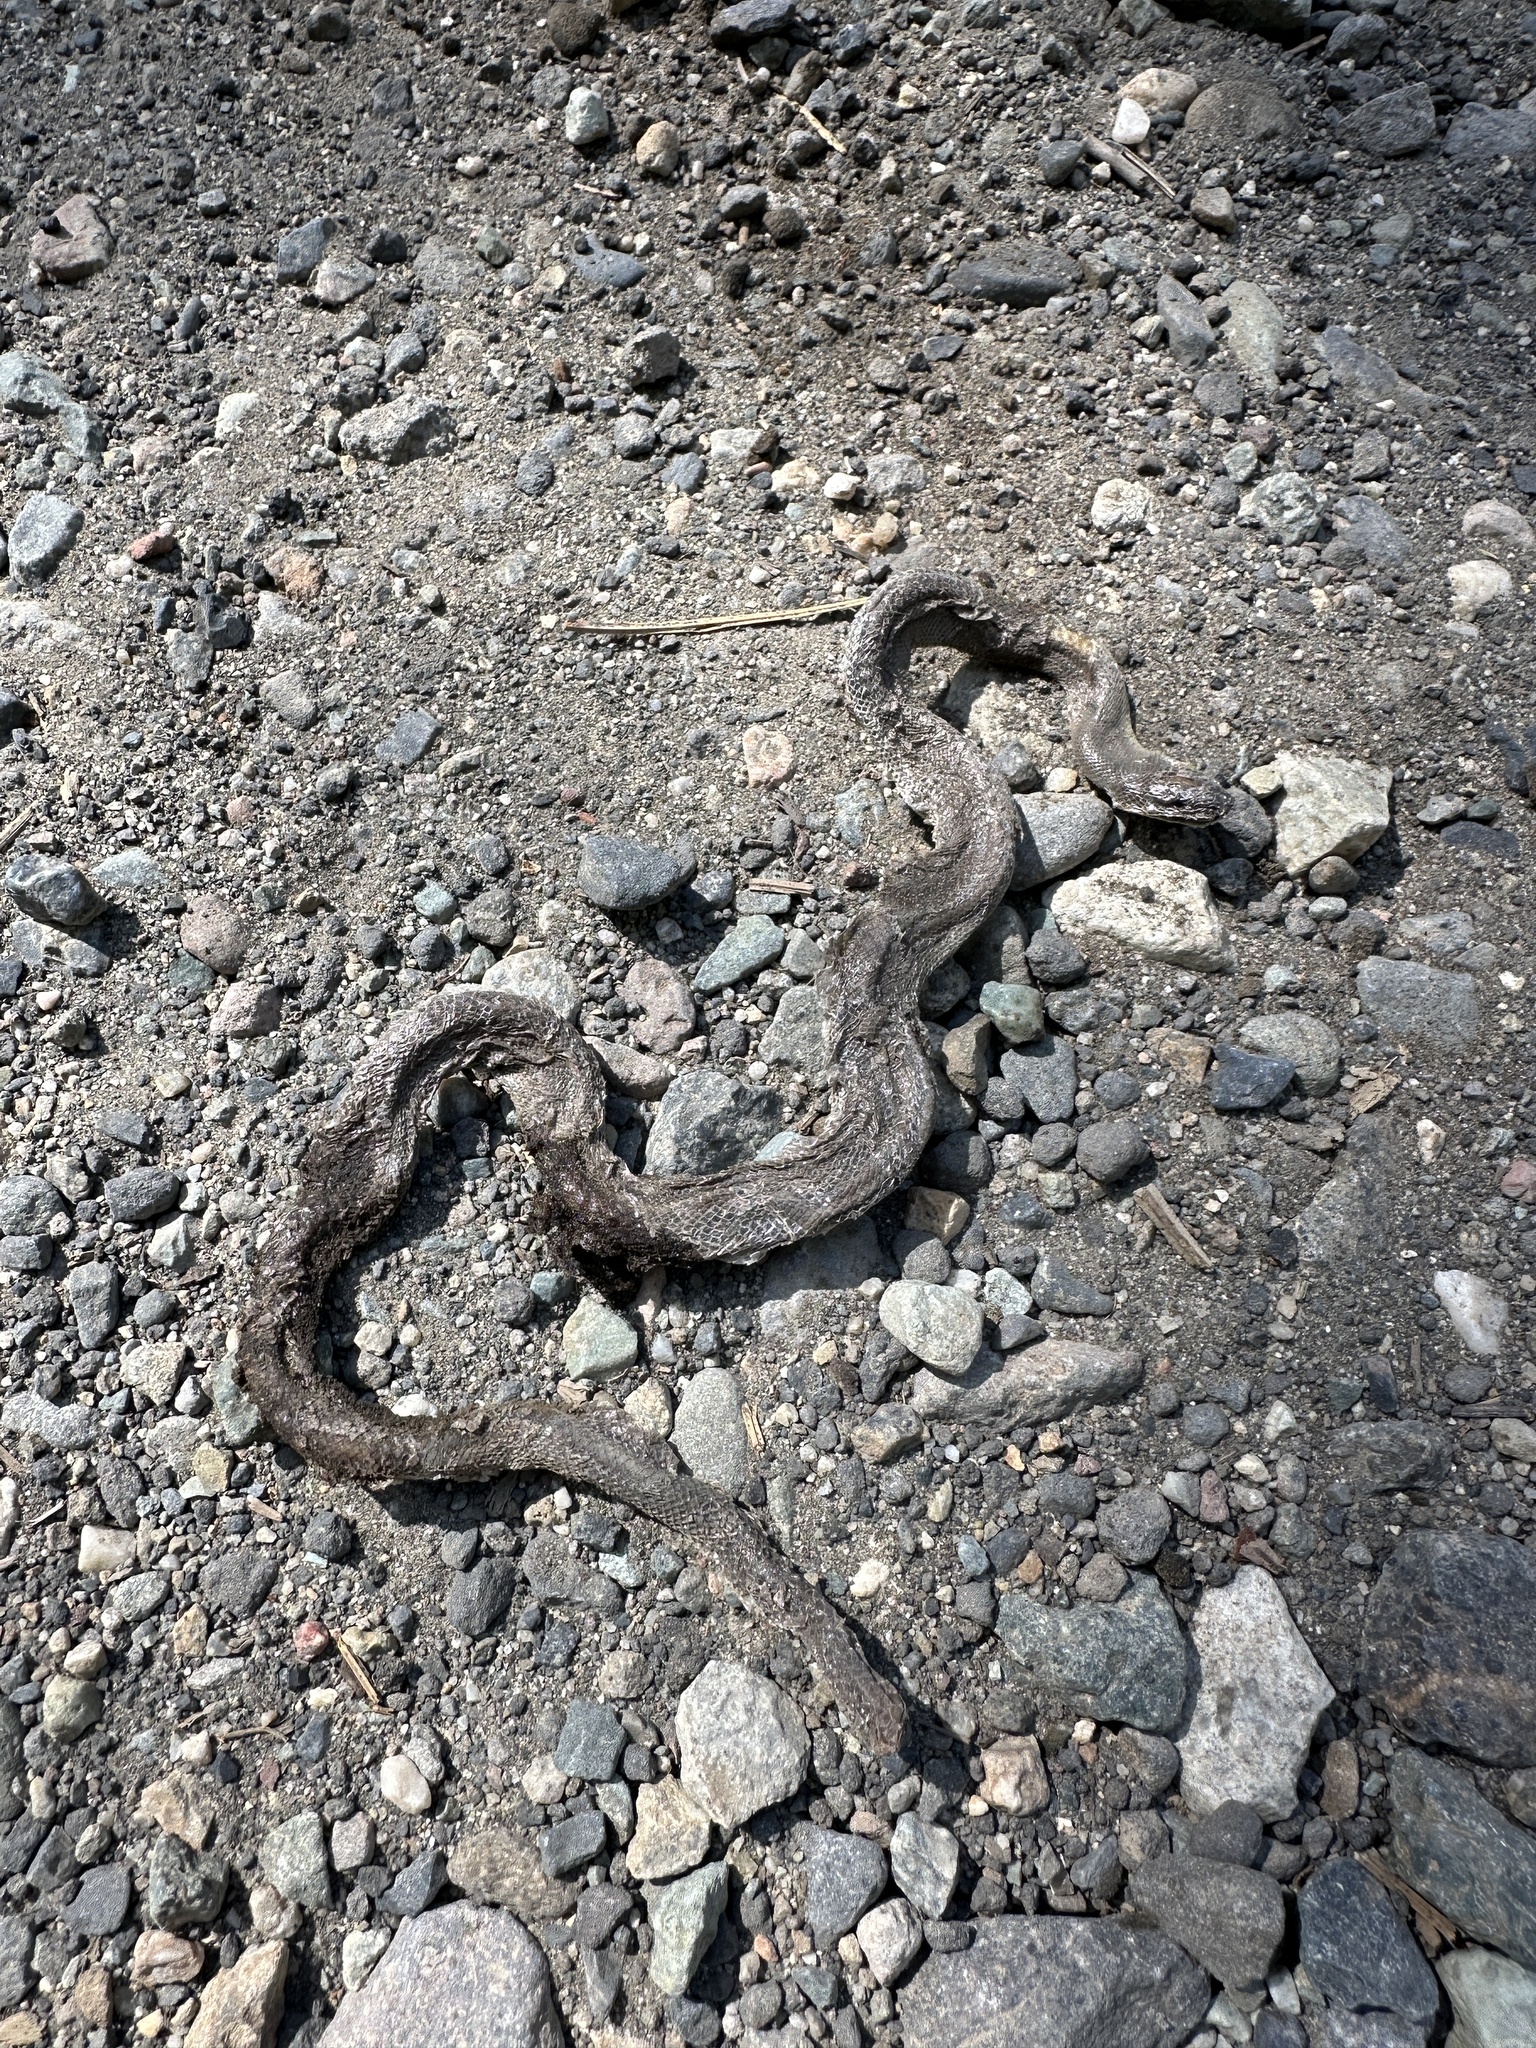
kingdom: Animalia
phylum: Chordata
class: Squamata
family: Boidae
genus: Charina
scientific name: Charina bottae
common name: Northern rubber boa
